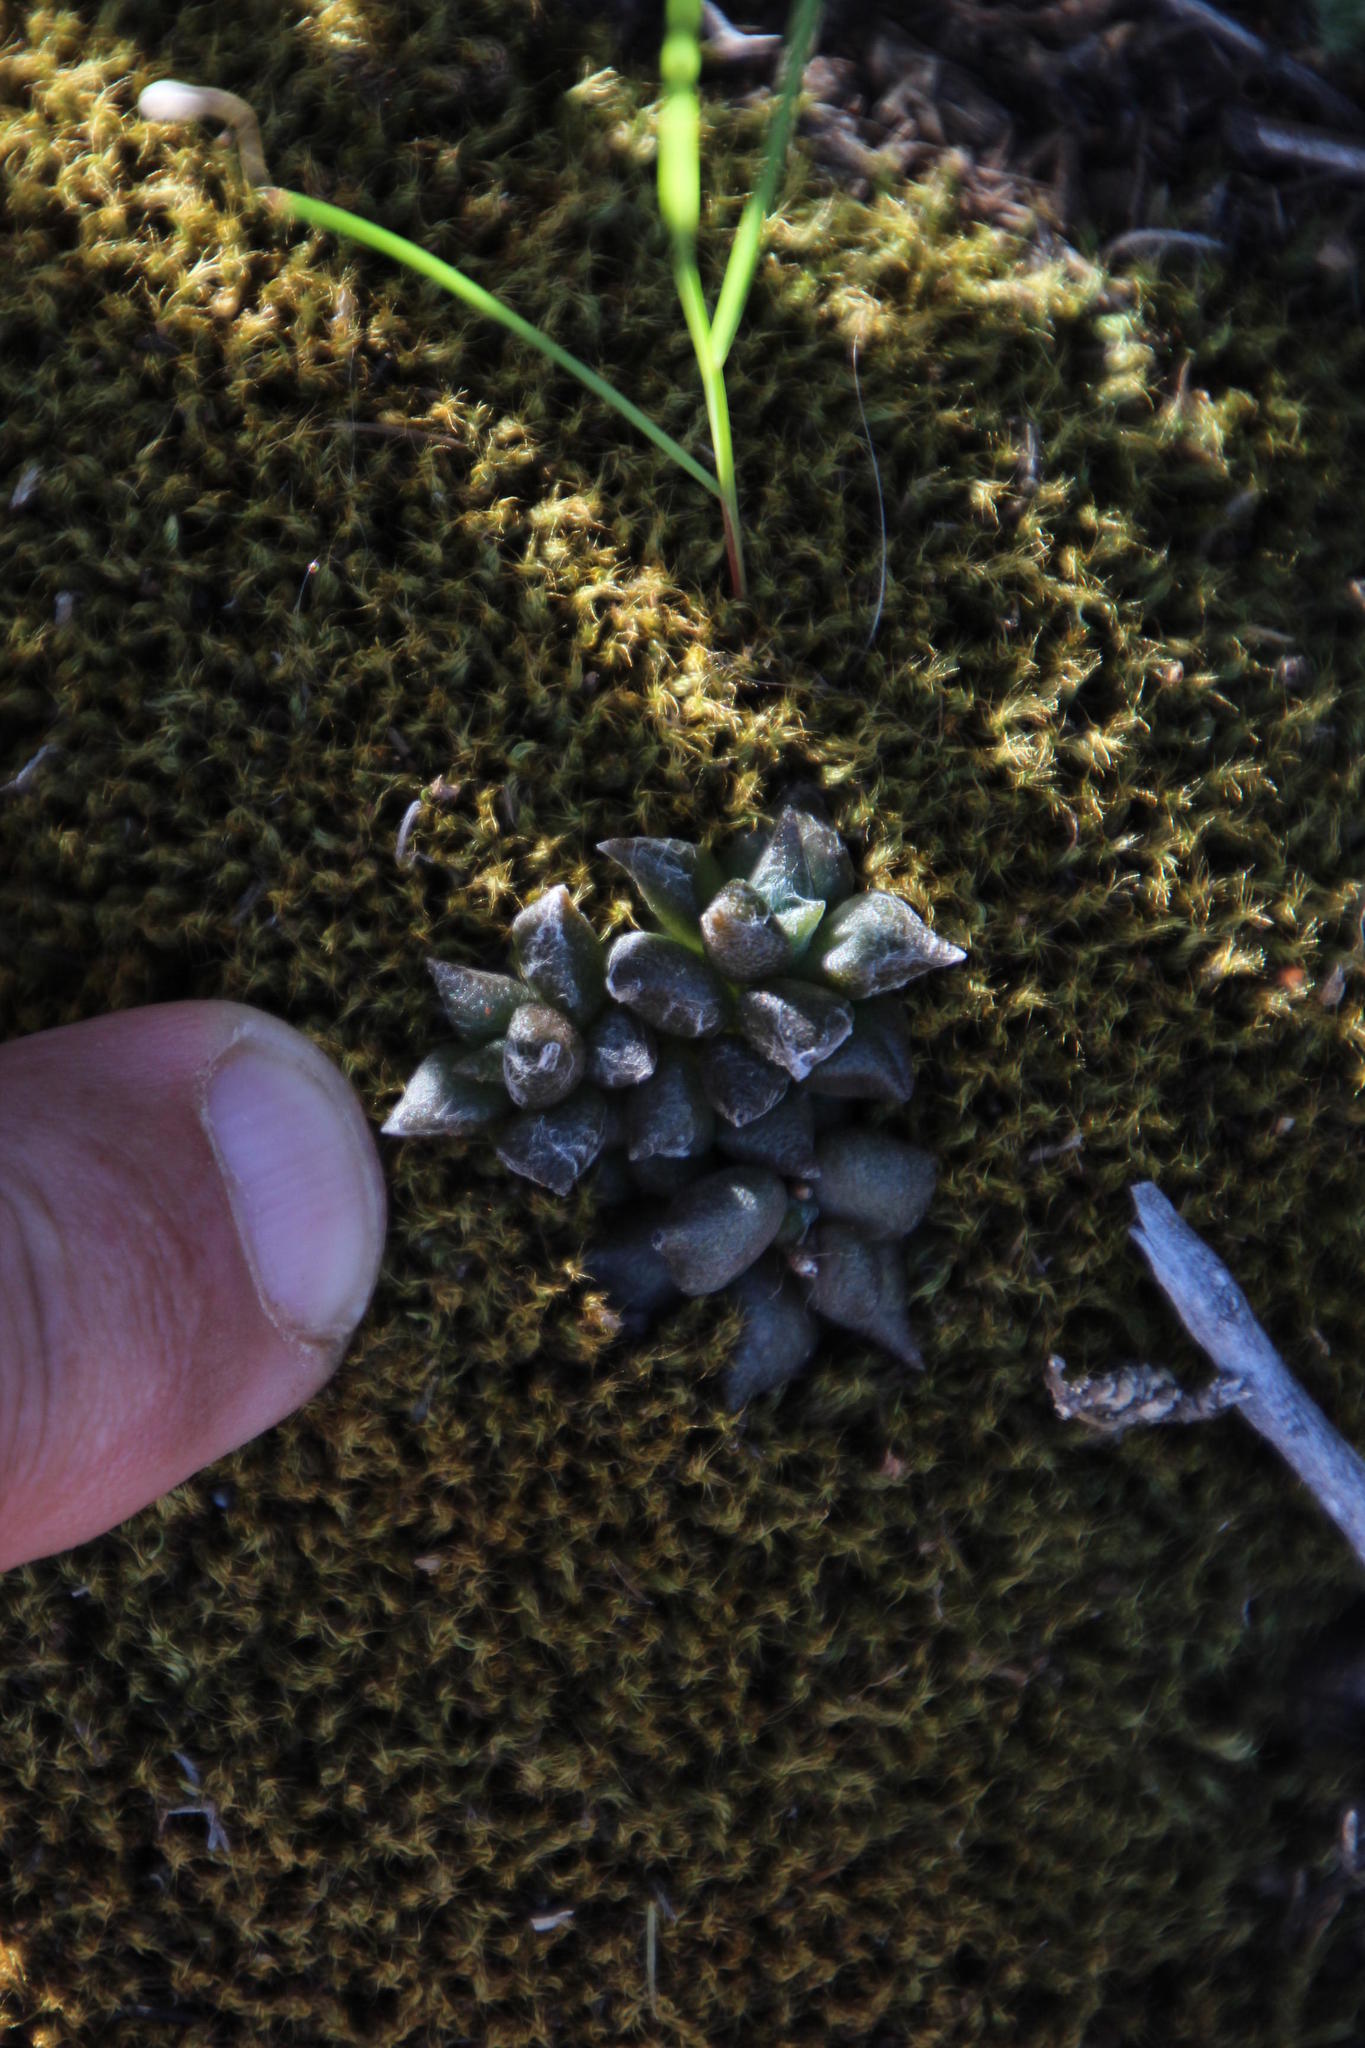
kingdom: Plantae
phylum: Tracheophyta
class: Magnoliopsida
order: Caryophyllales
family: Anacampserotaceae
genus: Anacampseros
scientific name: Anacampseros arachnoides
